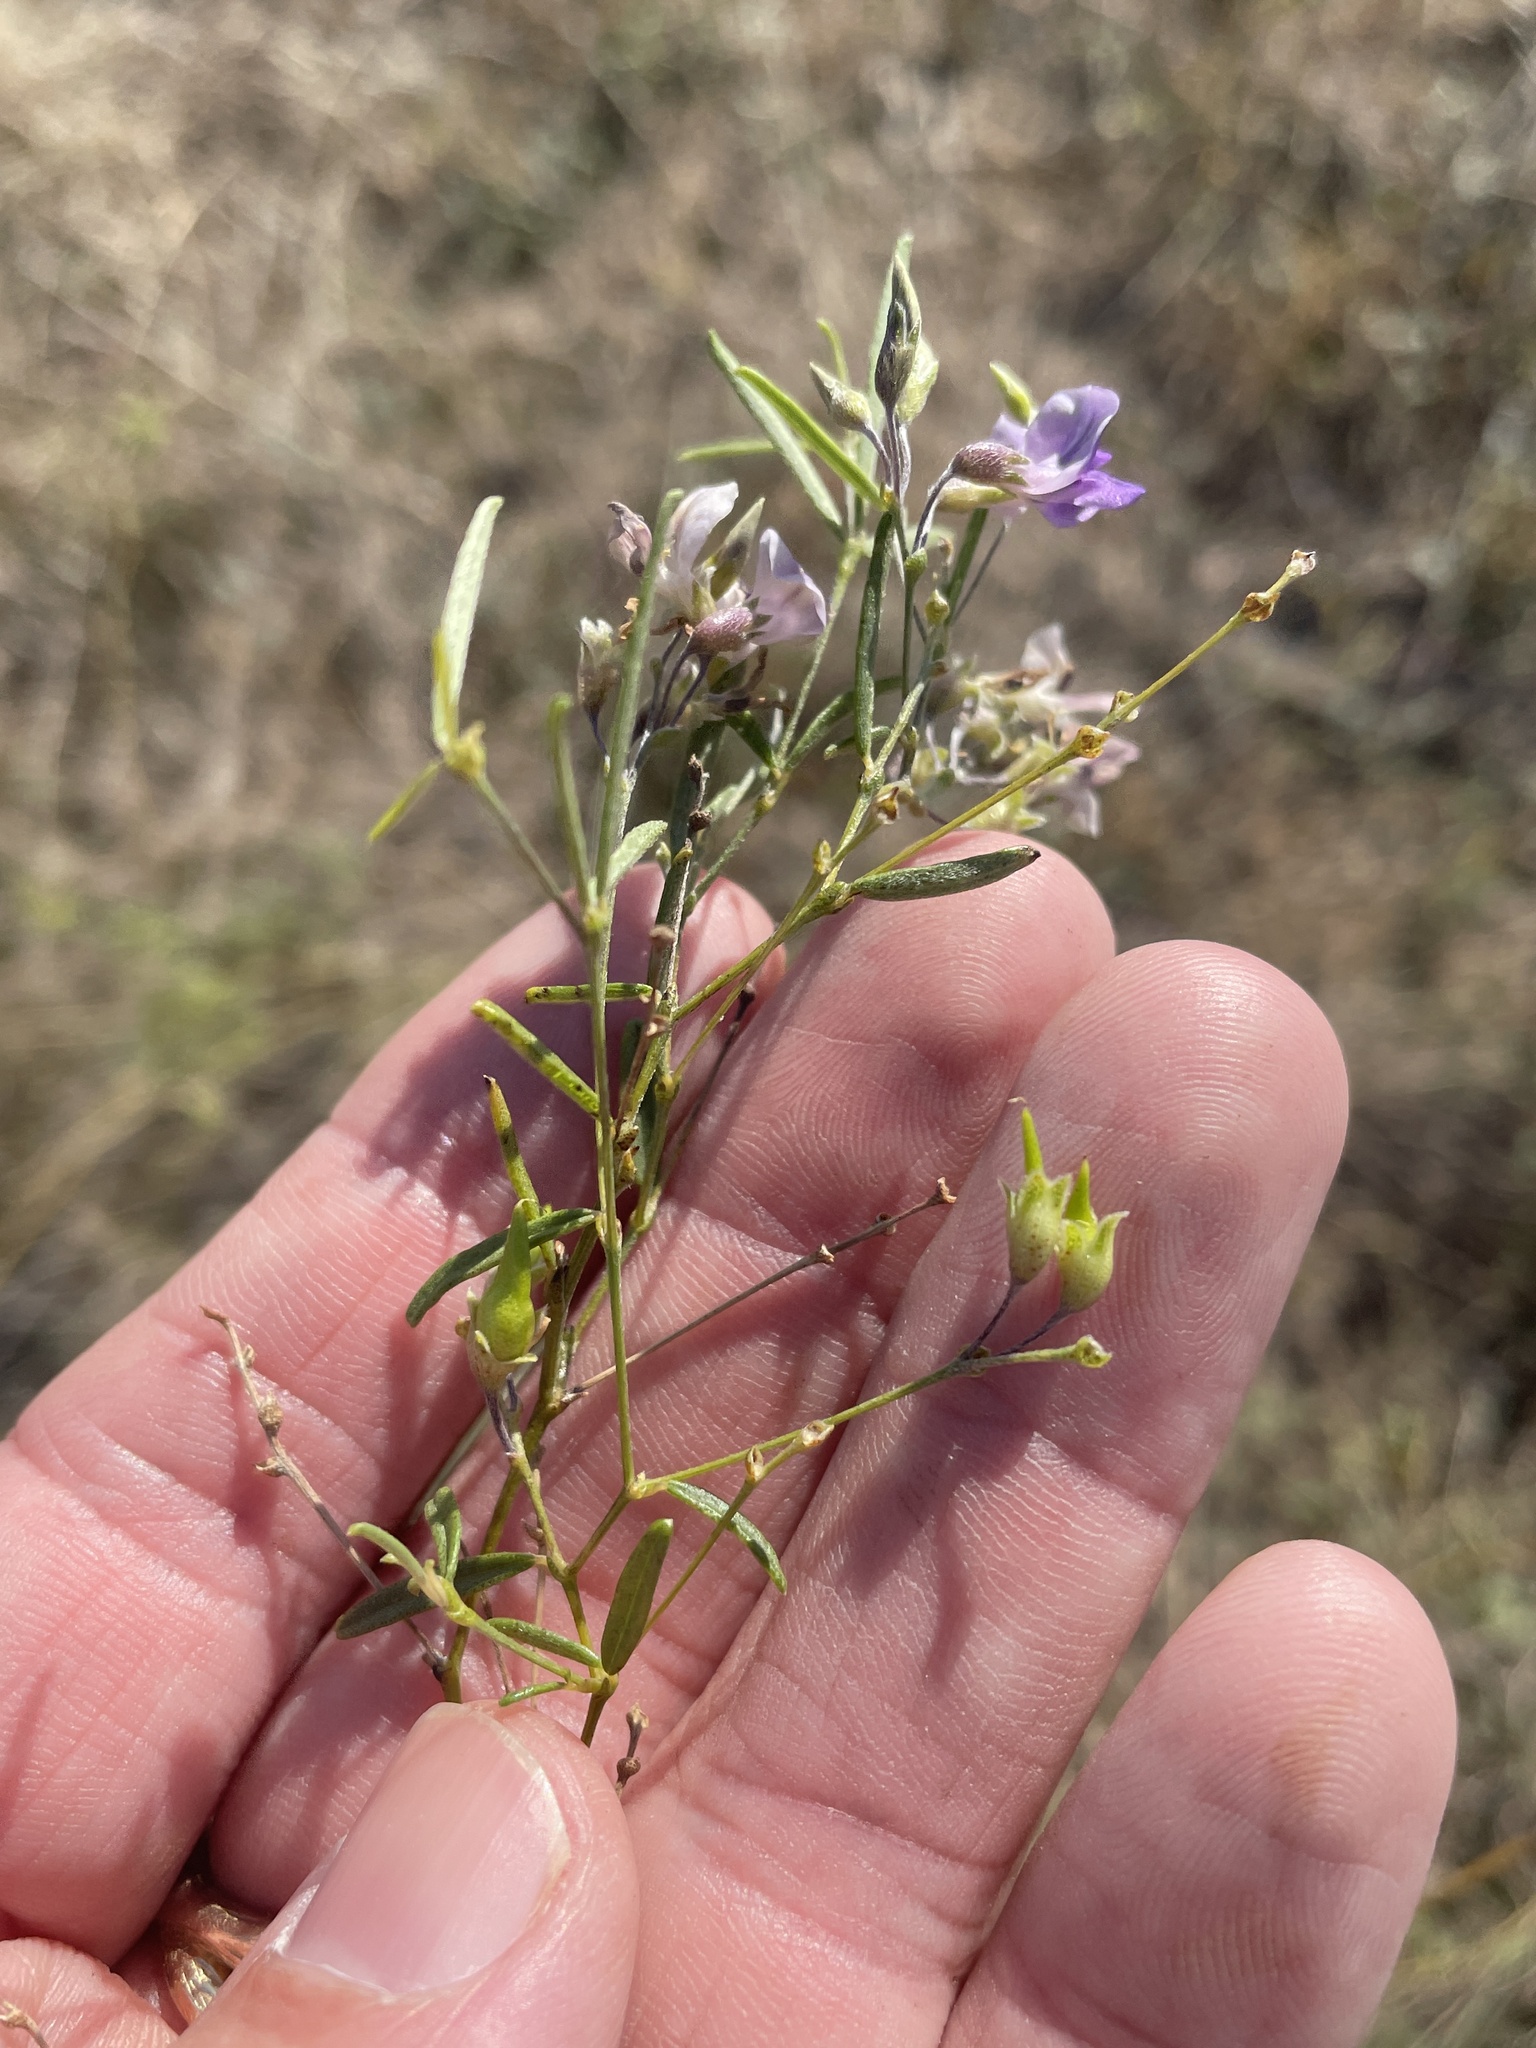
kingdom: Plantae
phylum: Tracheophyta
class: Magnoliopsida
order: Fabales
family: Fabaceae
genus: Pediomelum
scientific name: Pediomelum linearifolium
